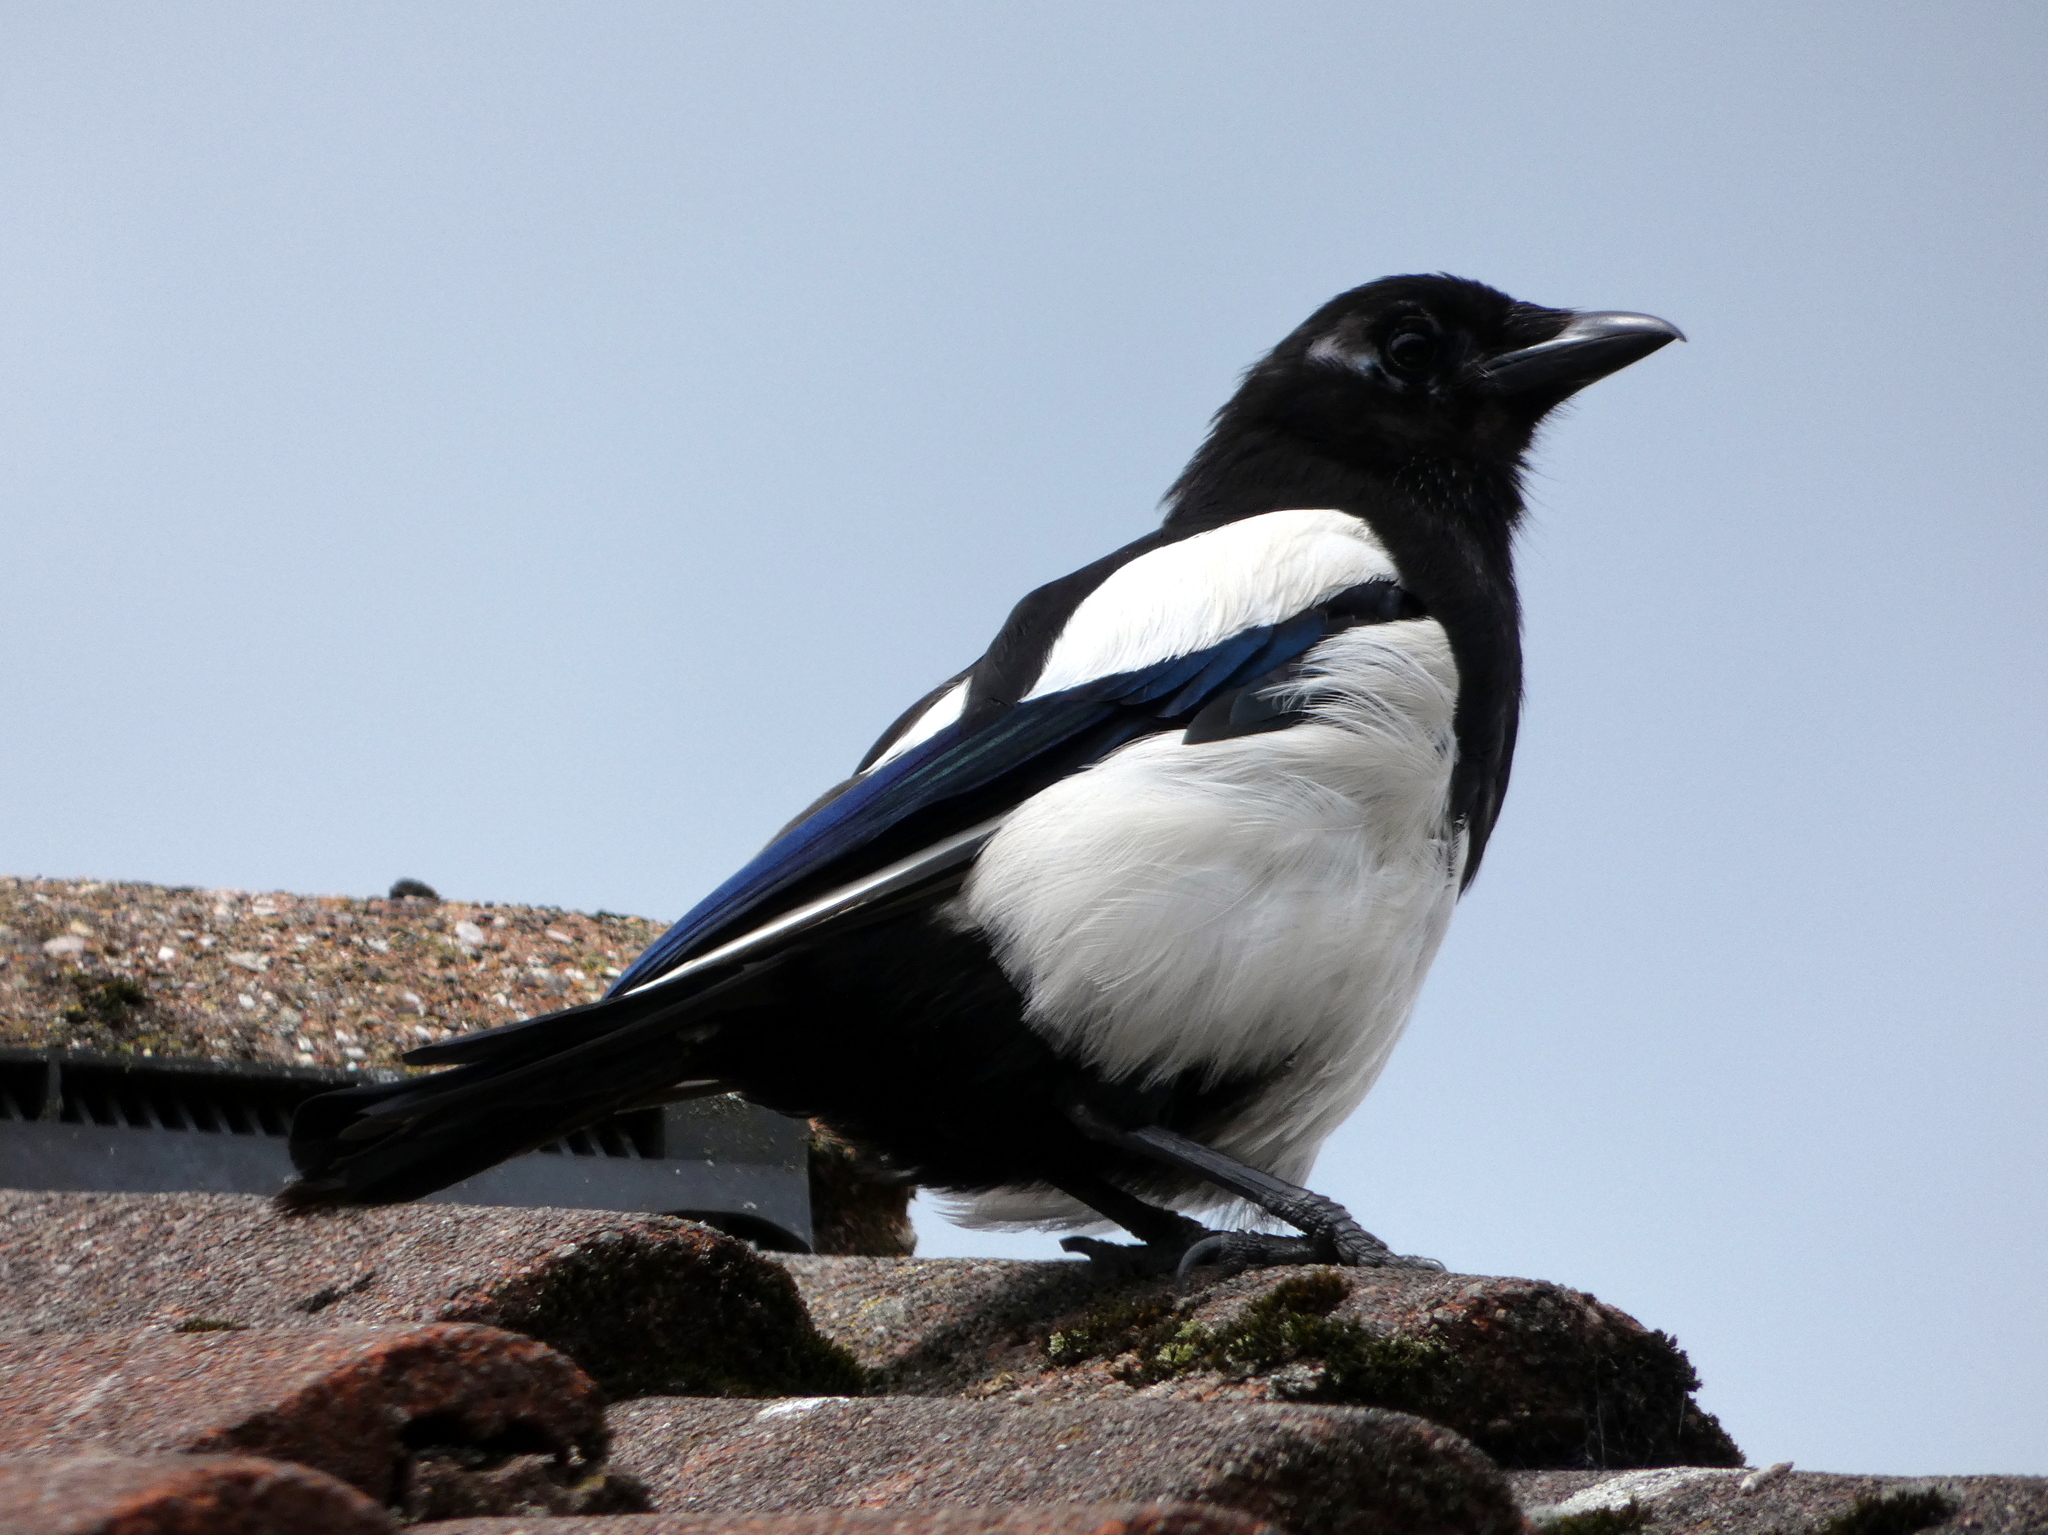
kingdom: Animalia
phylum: Chordata
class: Aves
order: Passeriformes
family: Corvidae
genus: Pica
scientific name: Pica pica
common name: Eurasian magpie
